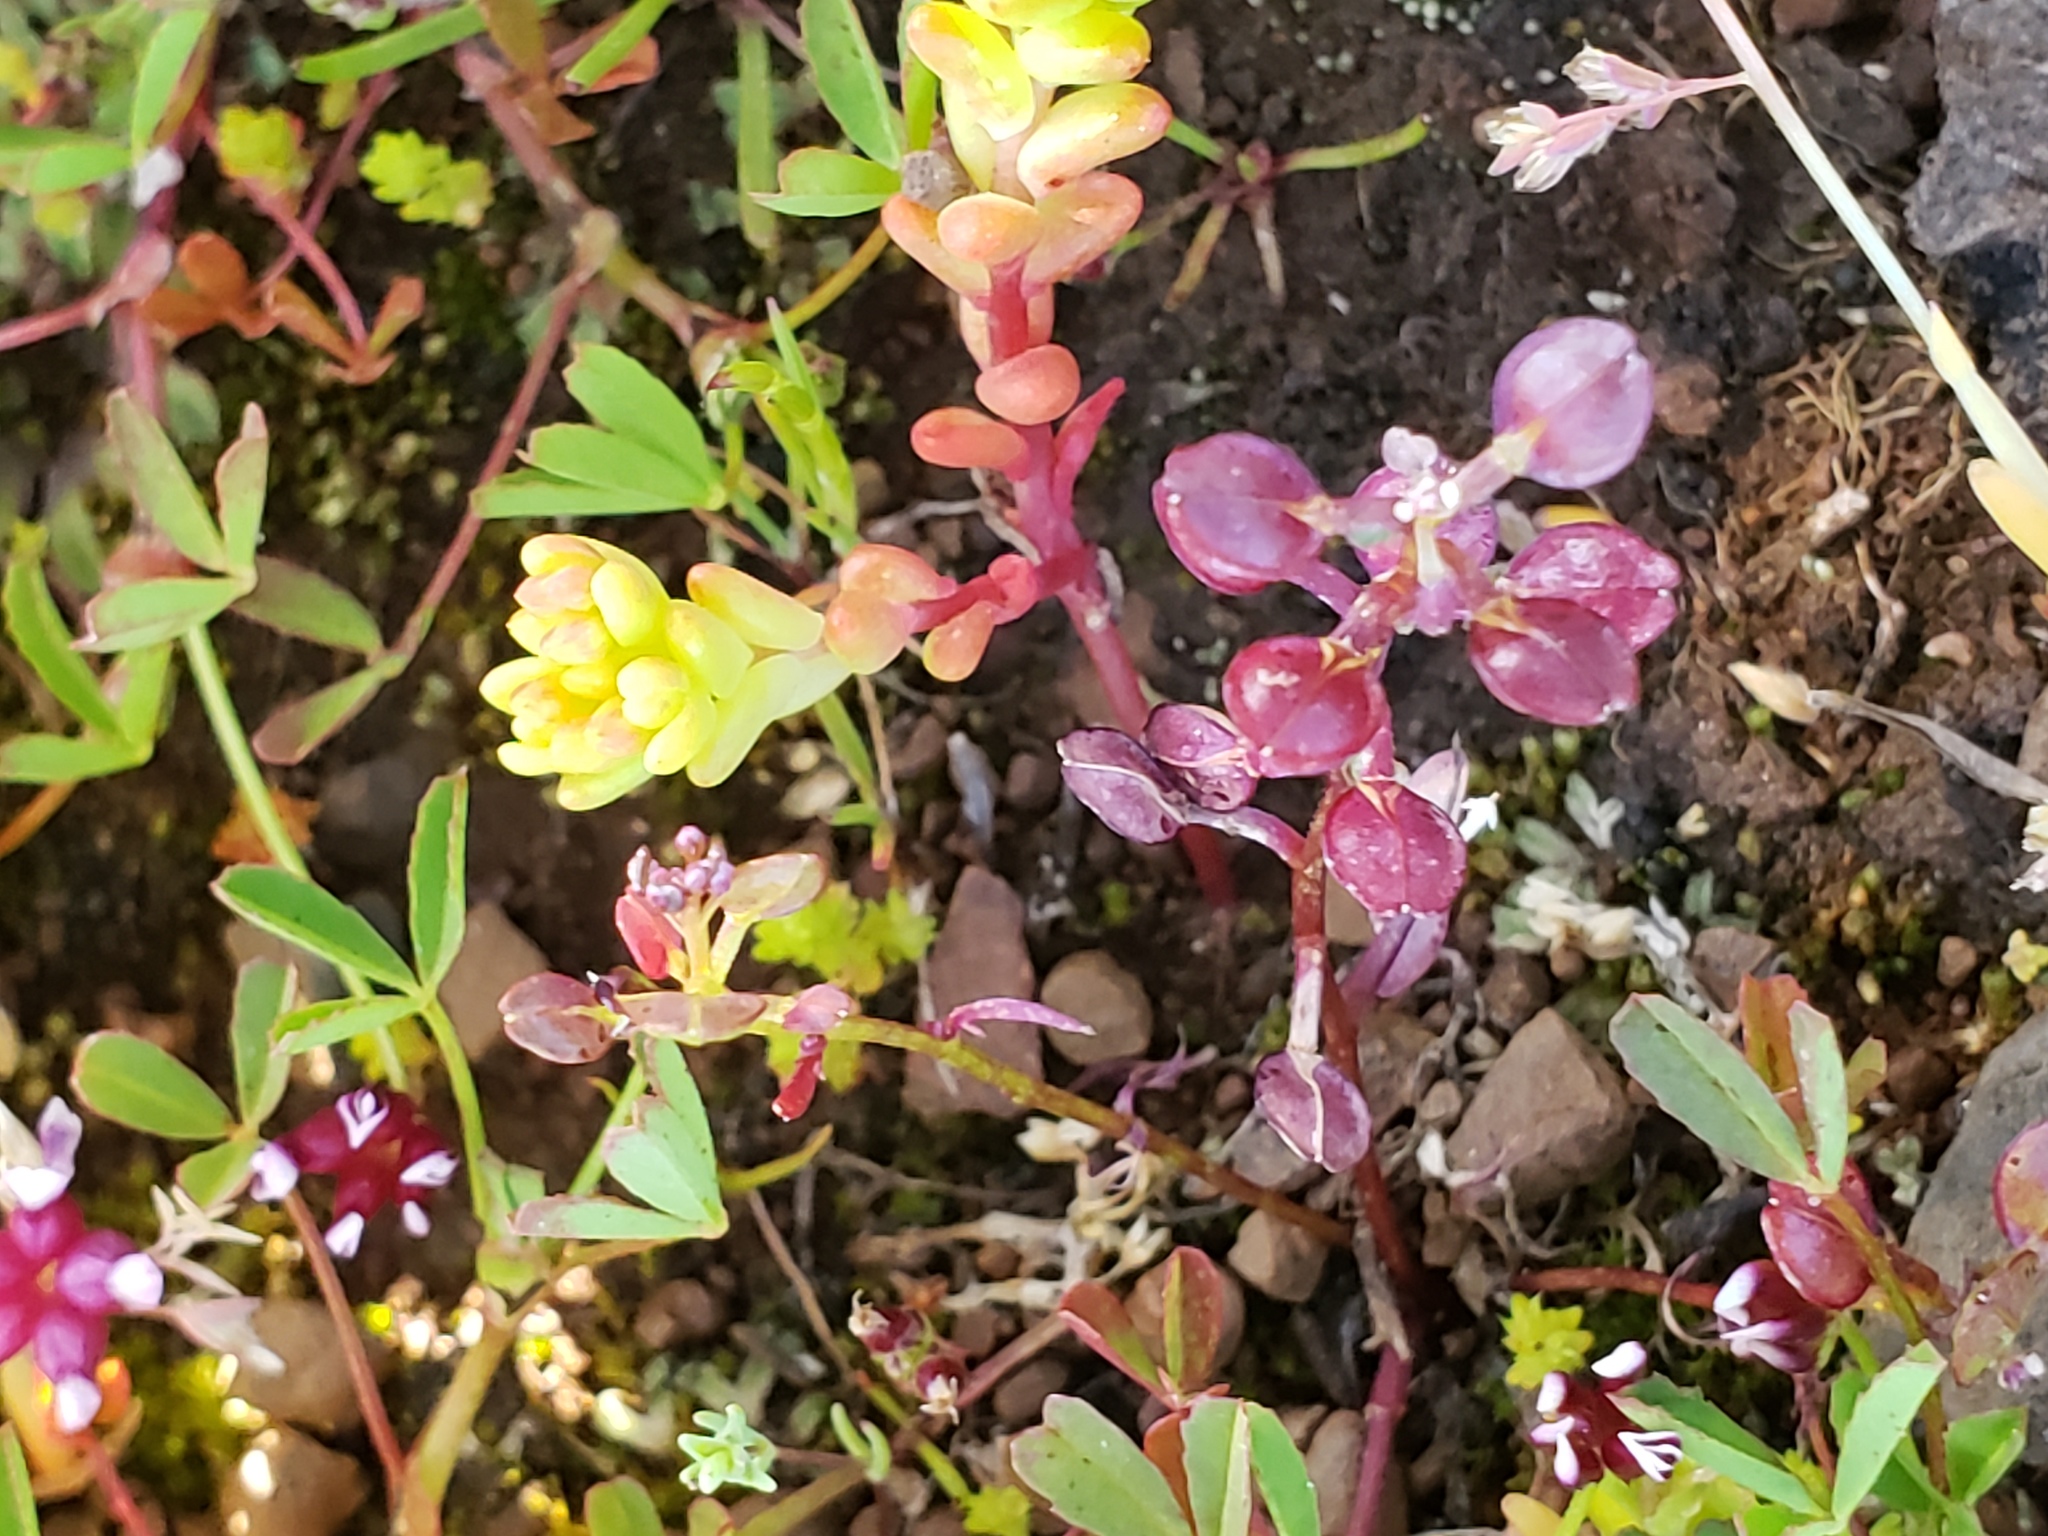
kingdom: Plantae
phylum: Tracheophyta
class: Magnoliopsida
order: Brassicales
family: Brassicaceae
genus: Lepidium
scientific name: Lepidium nitidum
